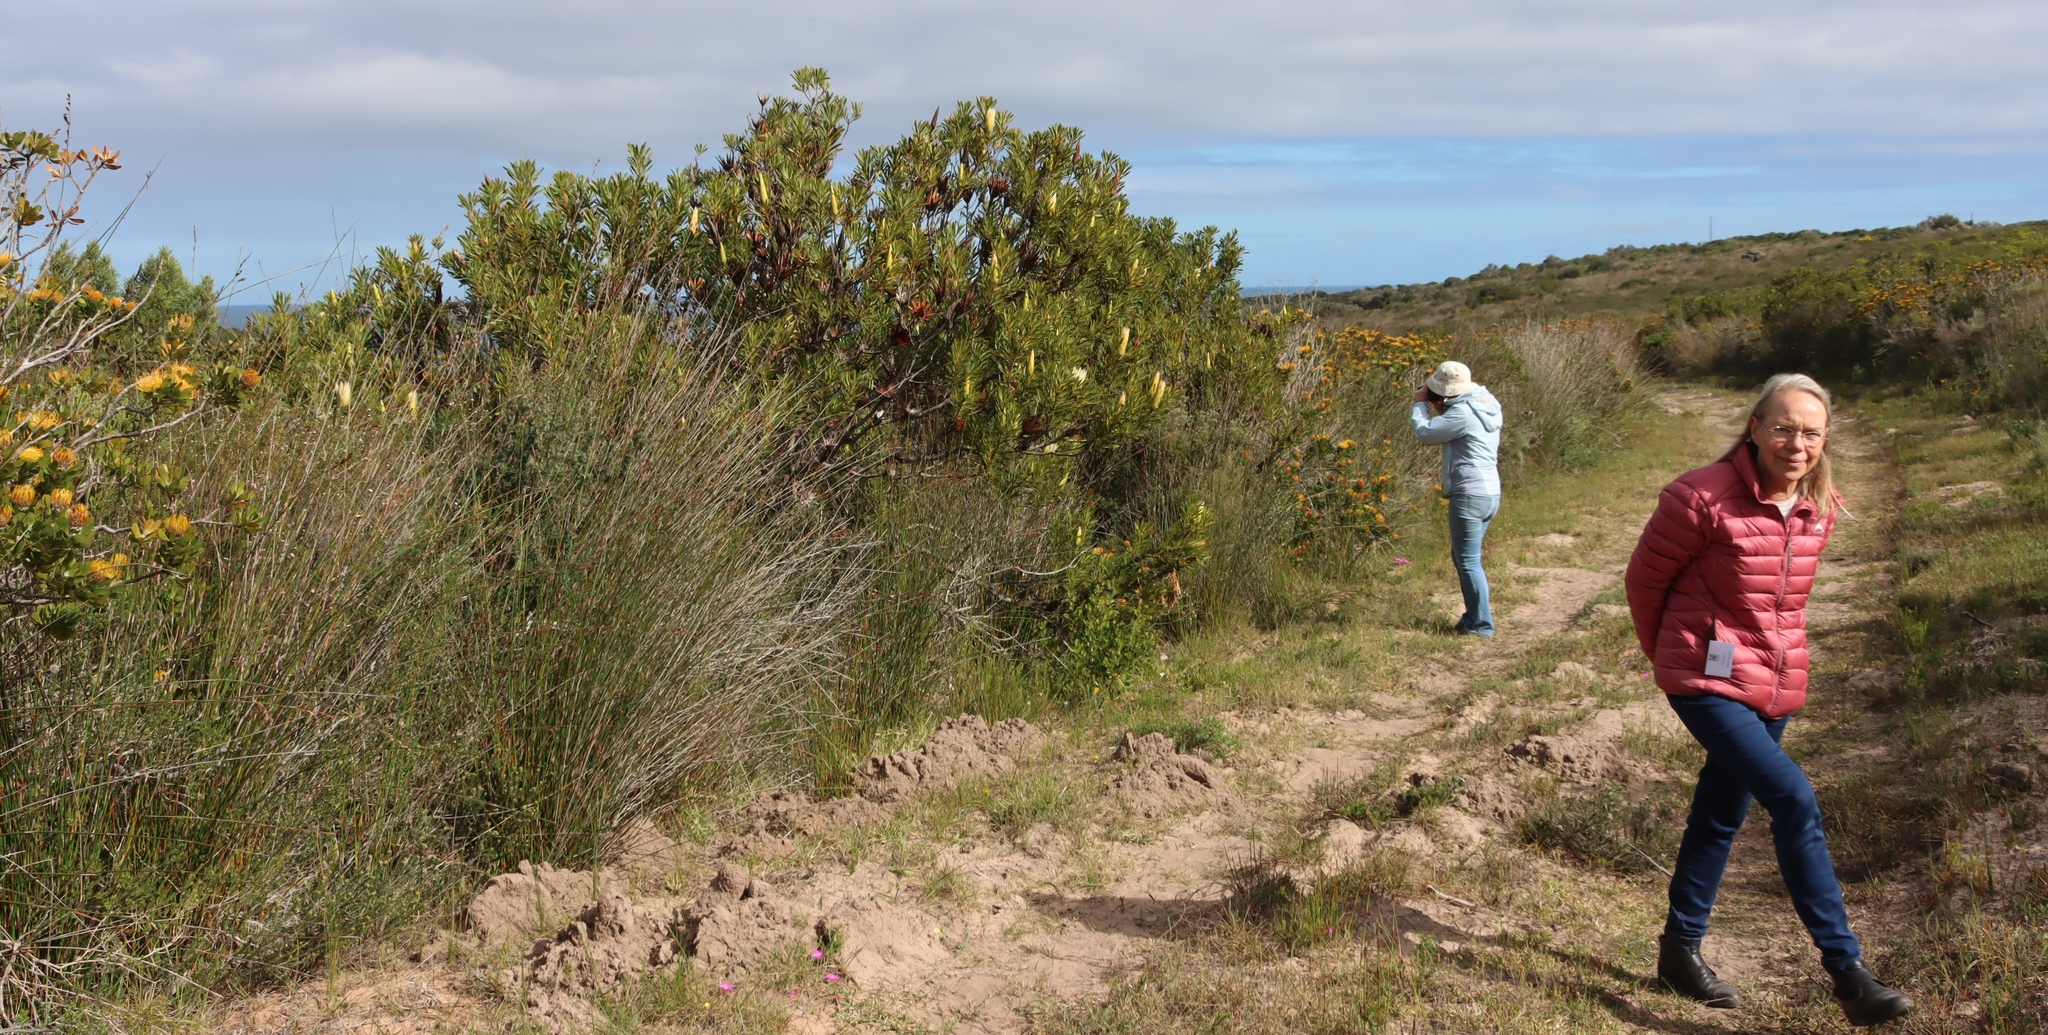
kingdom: Plantae
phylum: Tracheophyta
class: Magnoliopsida
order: Proteales
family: Proteaceae
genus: Protea
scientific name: Protea repens
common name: Sugarbush
